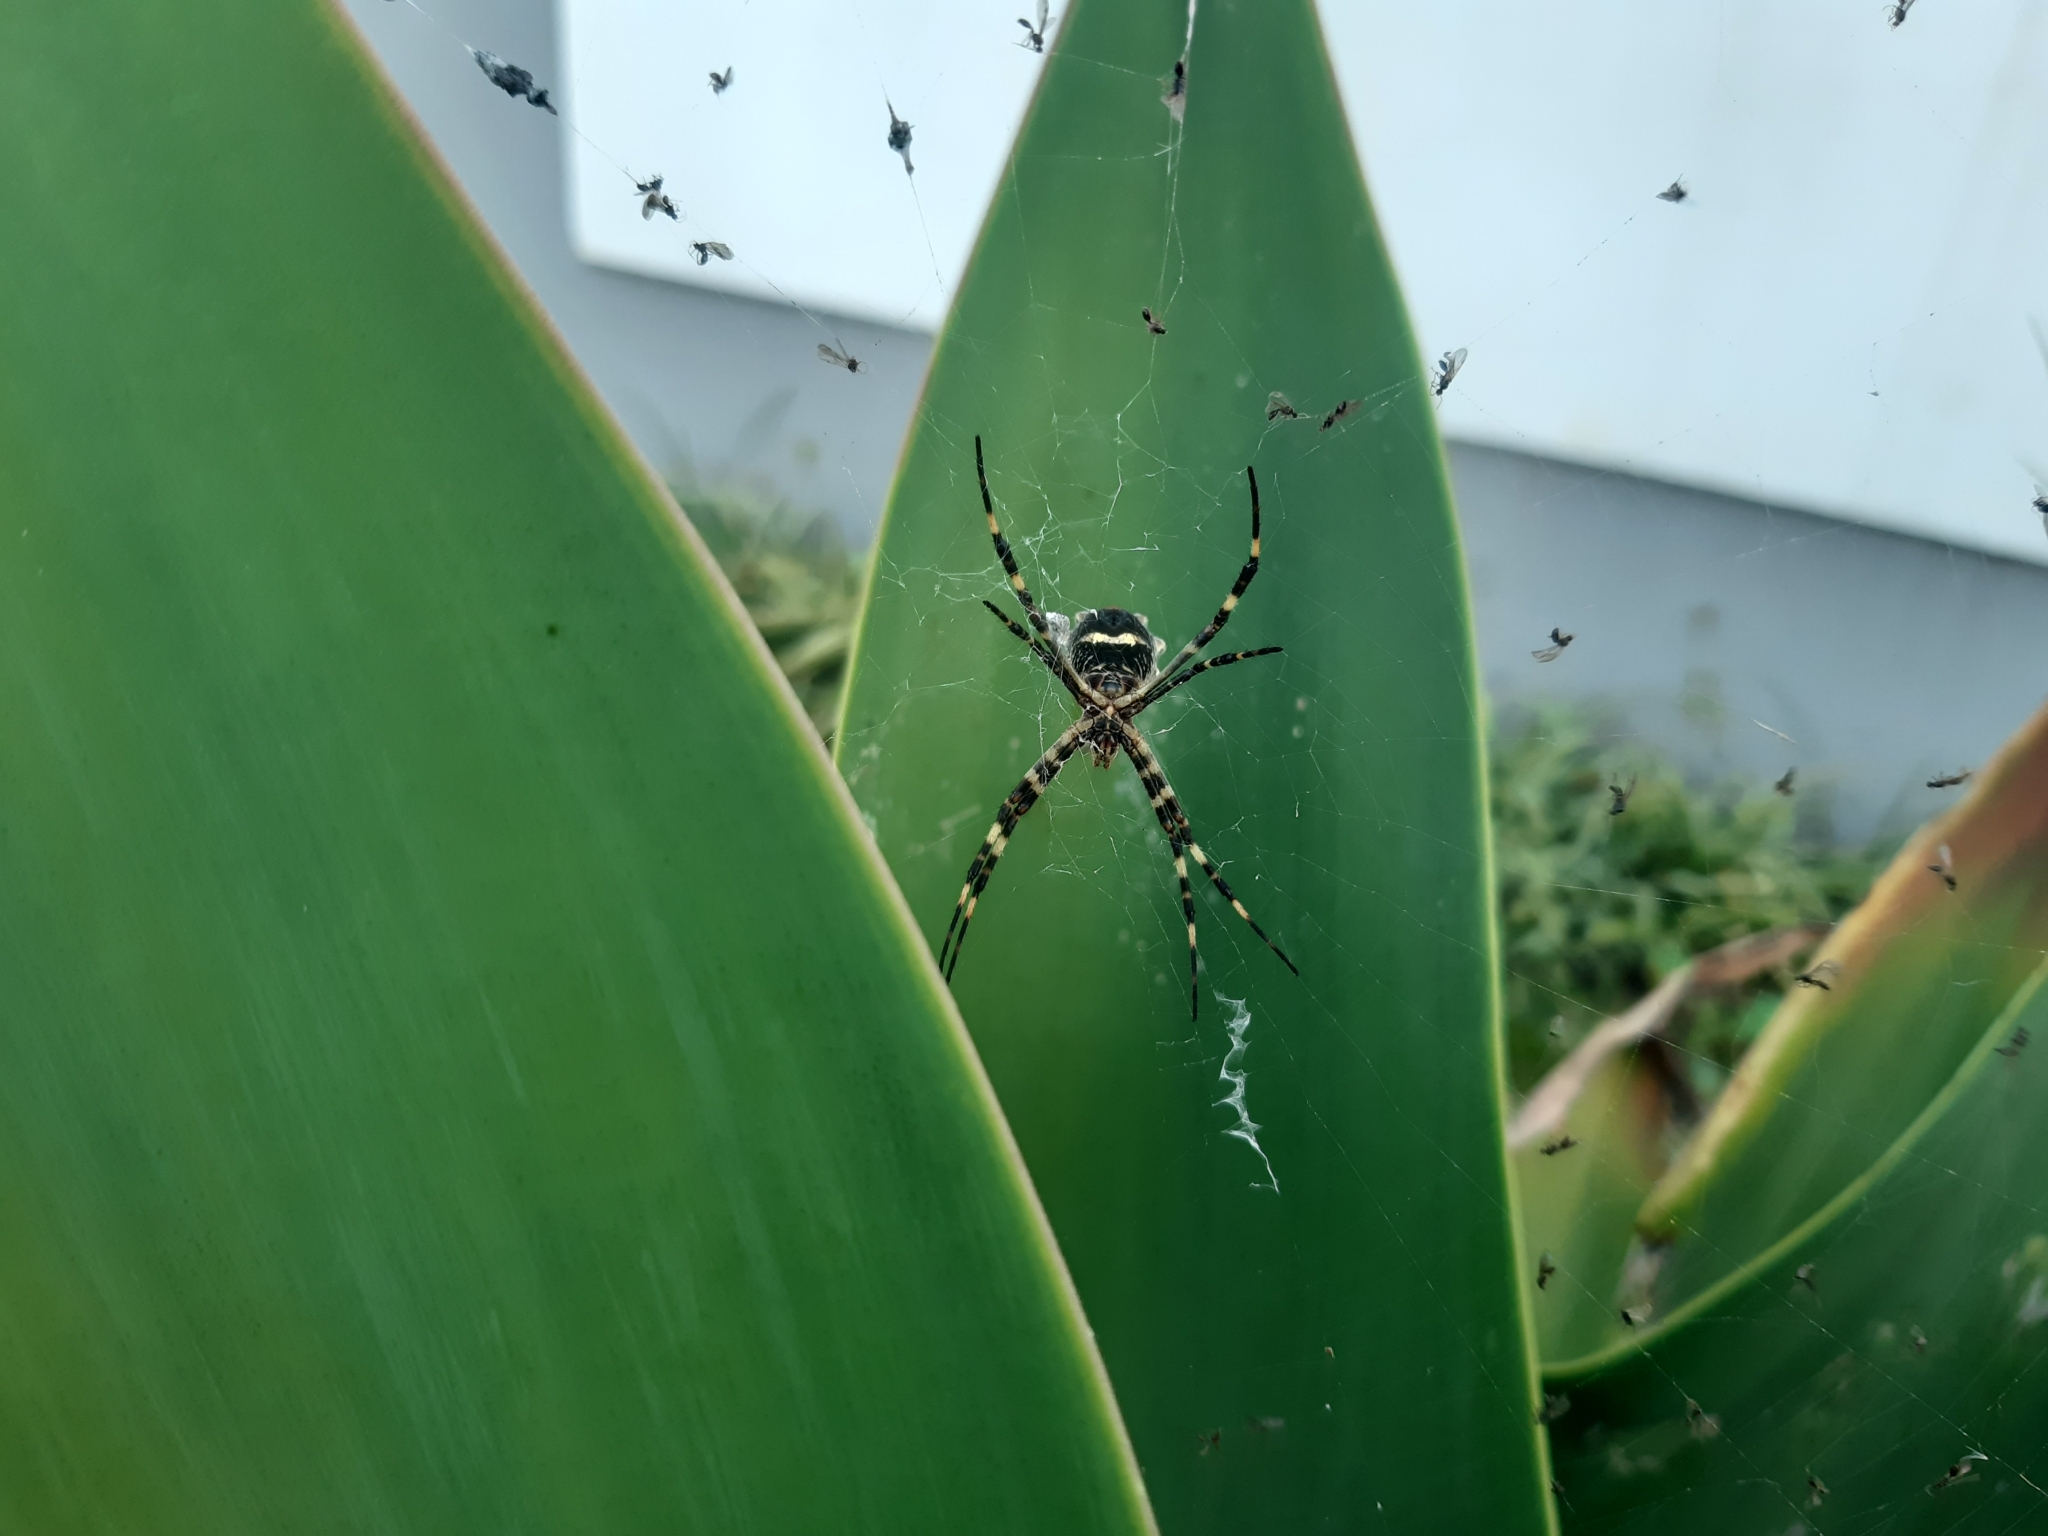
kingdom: Animalia
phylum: Arthropoda
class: Arachnida
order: Araneae
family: Araneidae
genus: Argiope
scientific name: Argiope argentata
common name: Orb weavers
